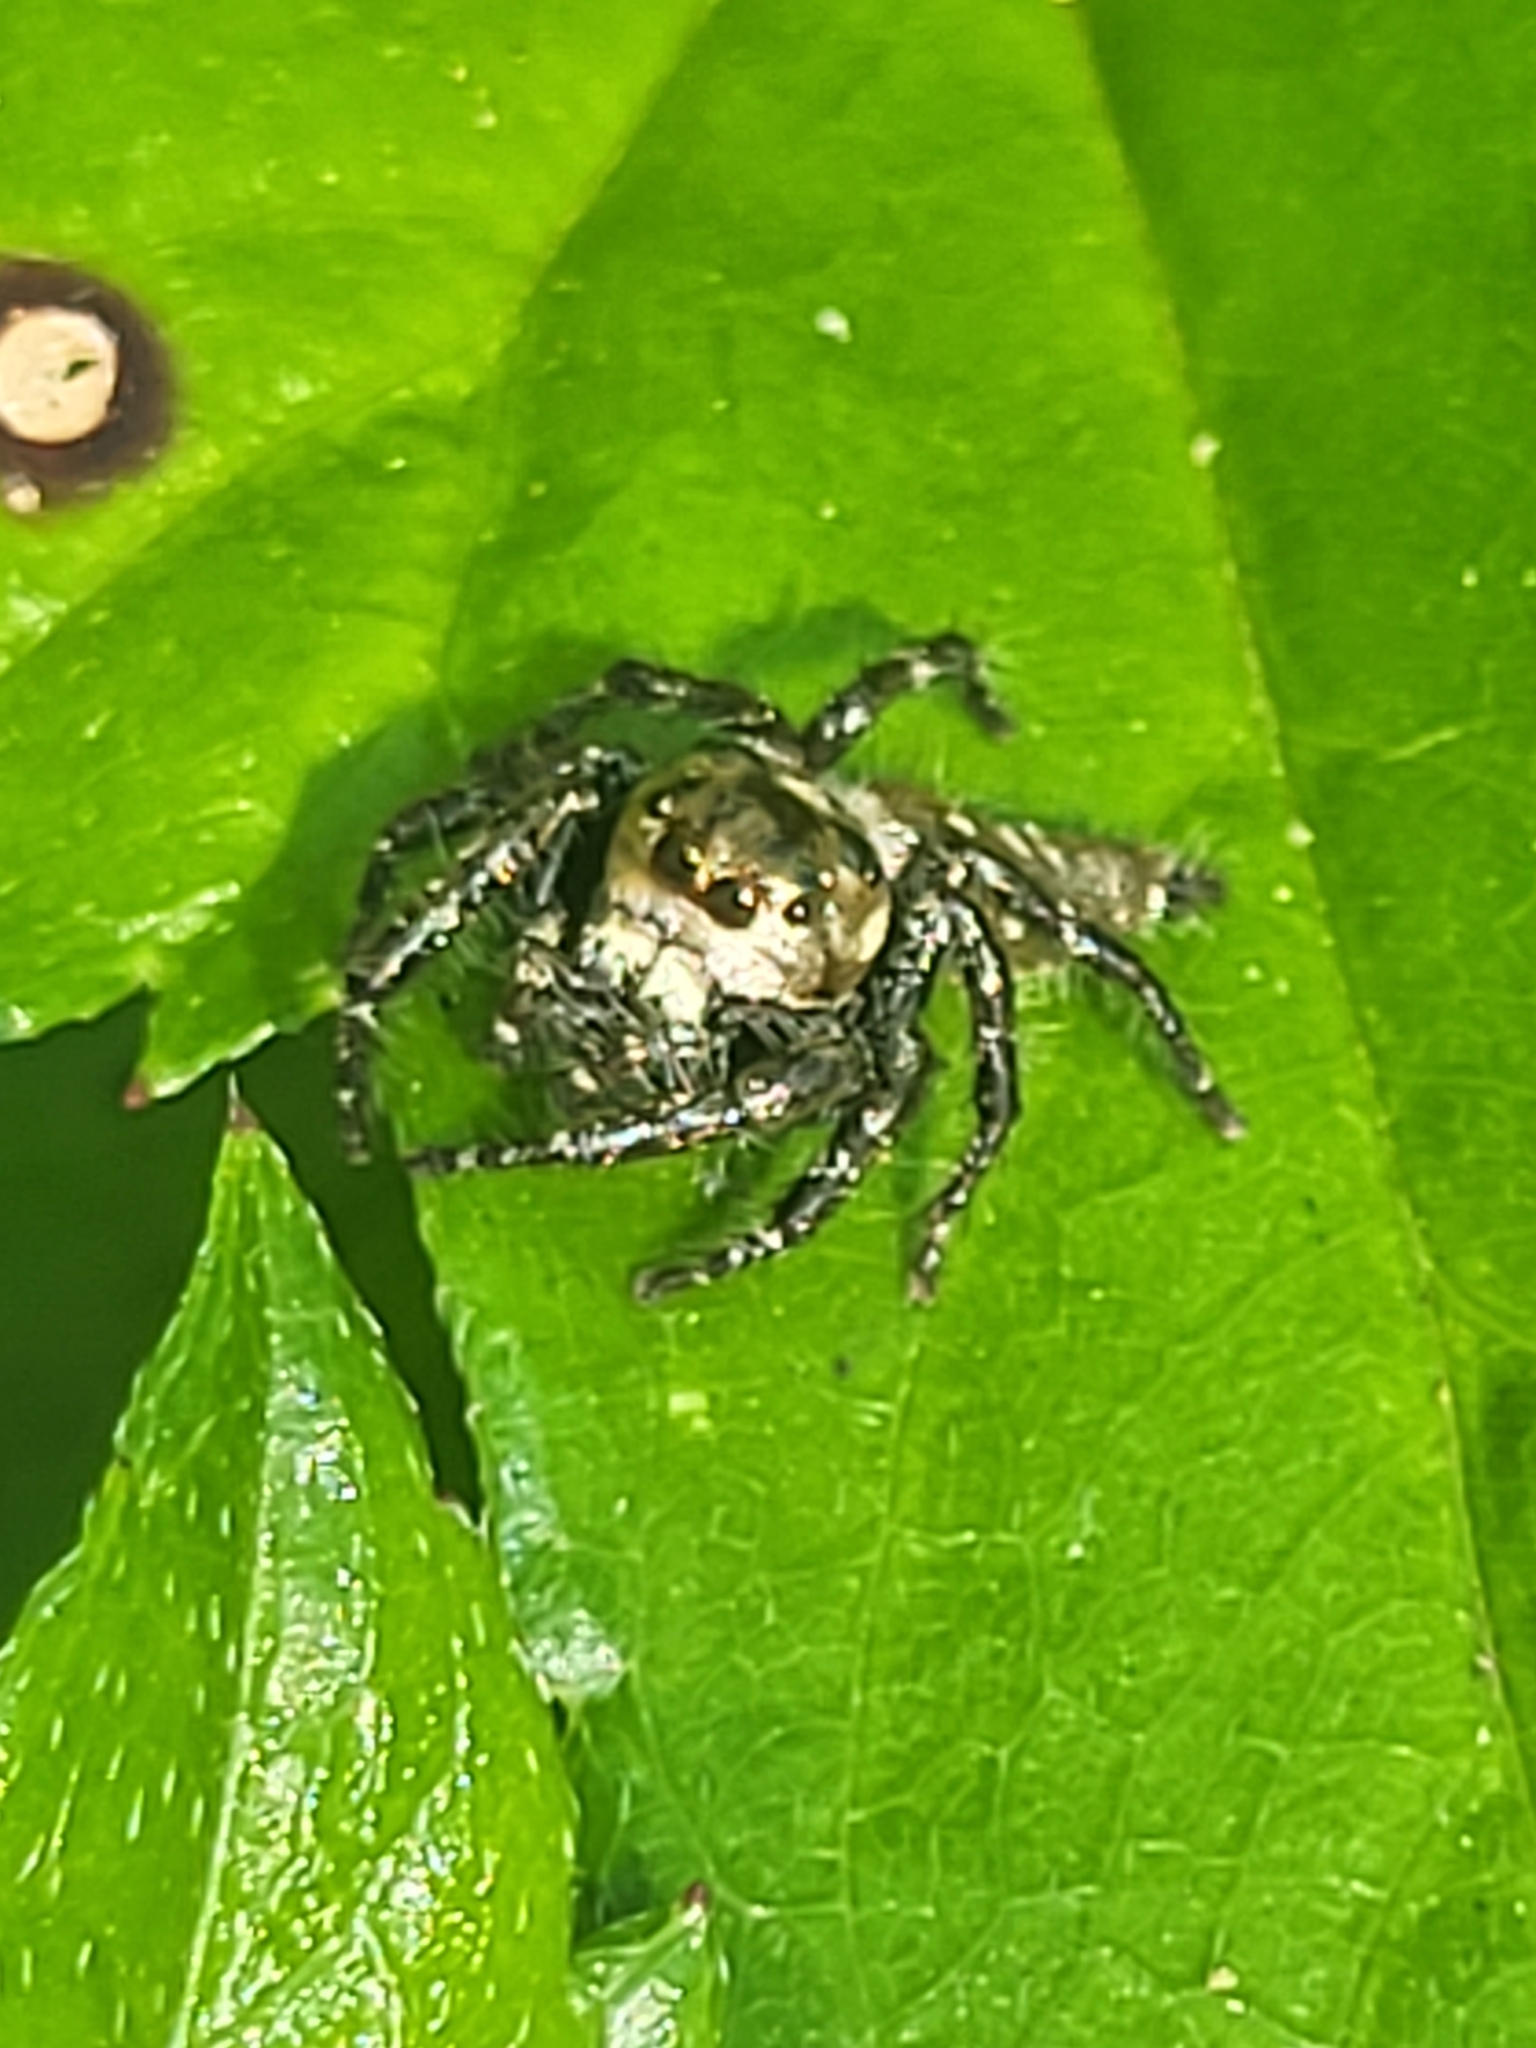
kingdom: Animalia
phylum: Arthropoda
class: Arachnida
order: Araneae
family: Salticidae
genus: Hyllus
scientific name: Hyllus semicupreus
